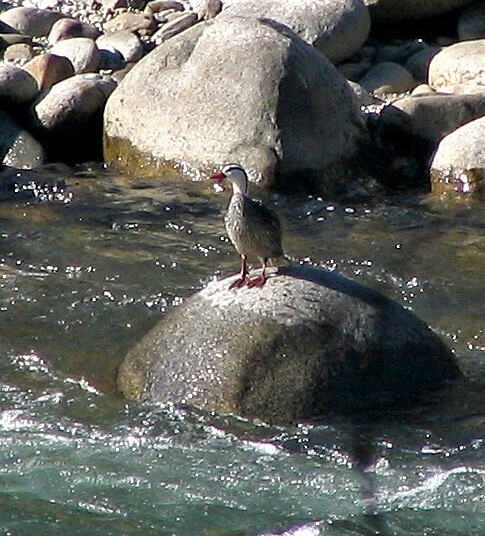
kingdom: Animalia
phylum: Chordata
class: Aves
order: Anseriformes
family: Anatidae
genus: Merganetta
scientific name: Merganetta armata
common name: Torrent duck
